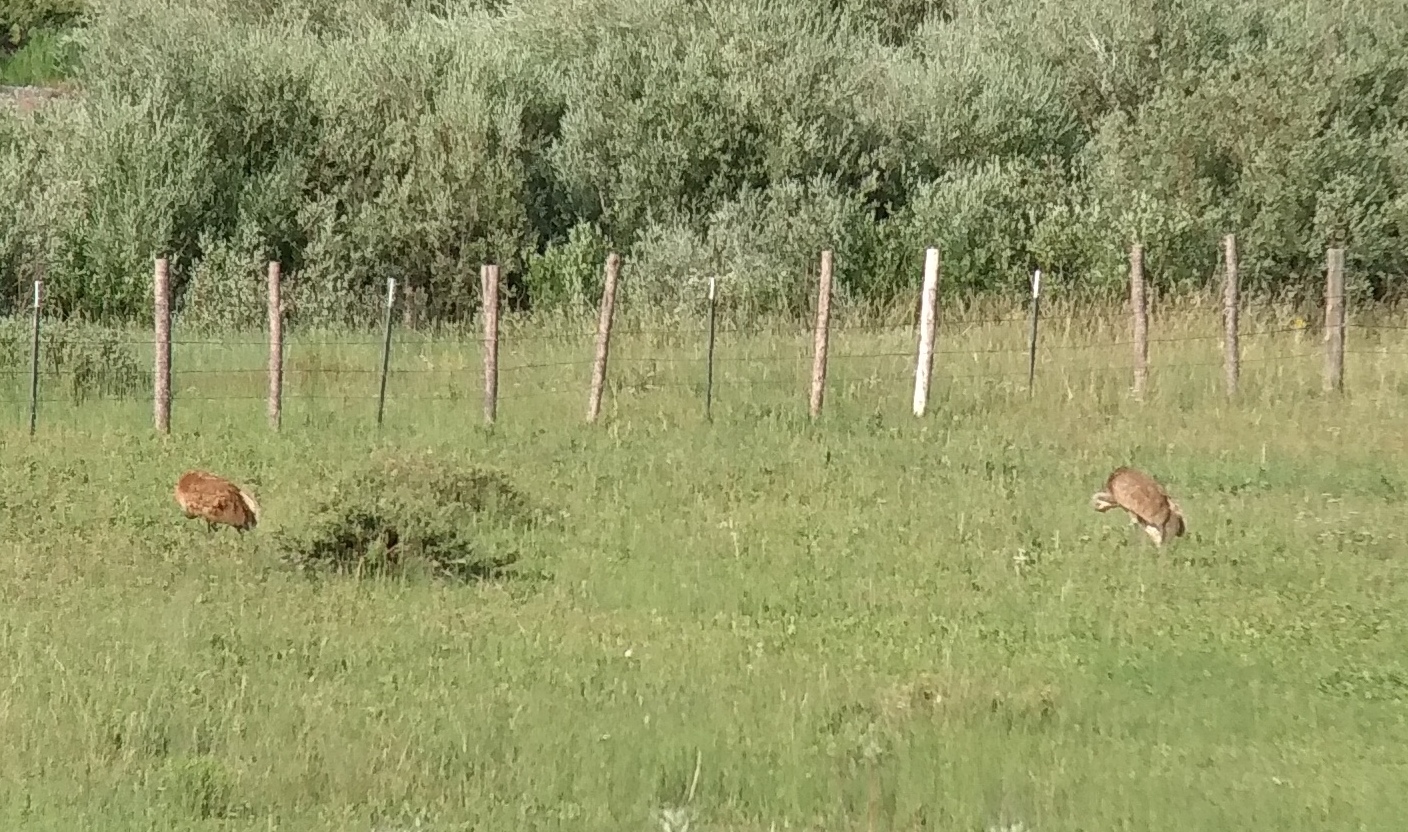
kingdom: Animalia
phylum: Chordata
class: Aves
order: Gruiformes
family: Gruidae
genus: Grus
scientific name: Grus canadensis
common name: Sandhill crane
